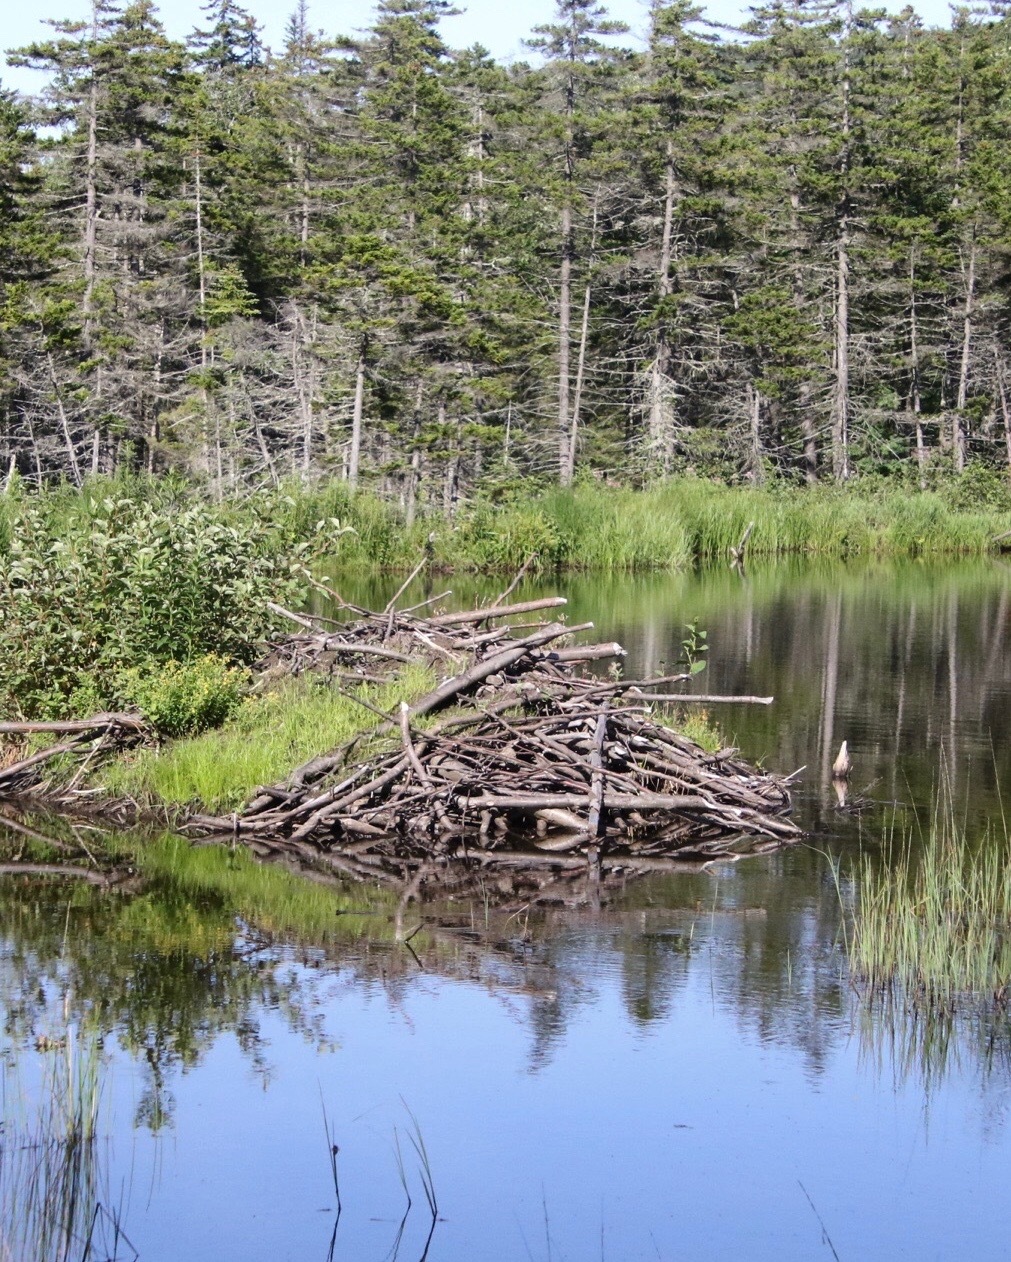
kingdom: Animalia
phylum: Chordata
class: Mammalia
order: Rodentia
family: Castoridae
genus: Castor
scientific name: Castor canadensis
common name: American beaver
